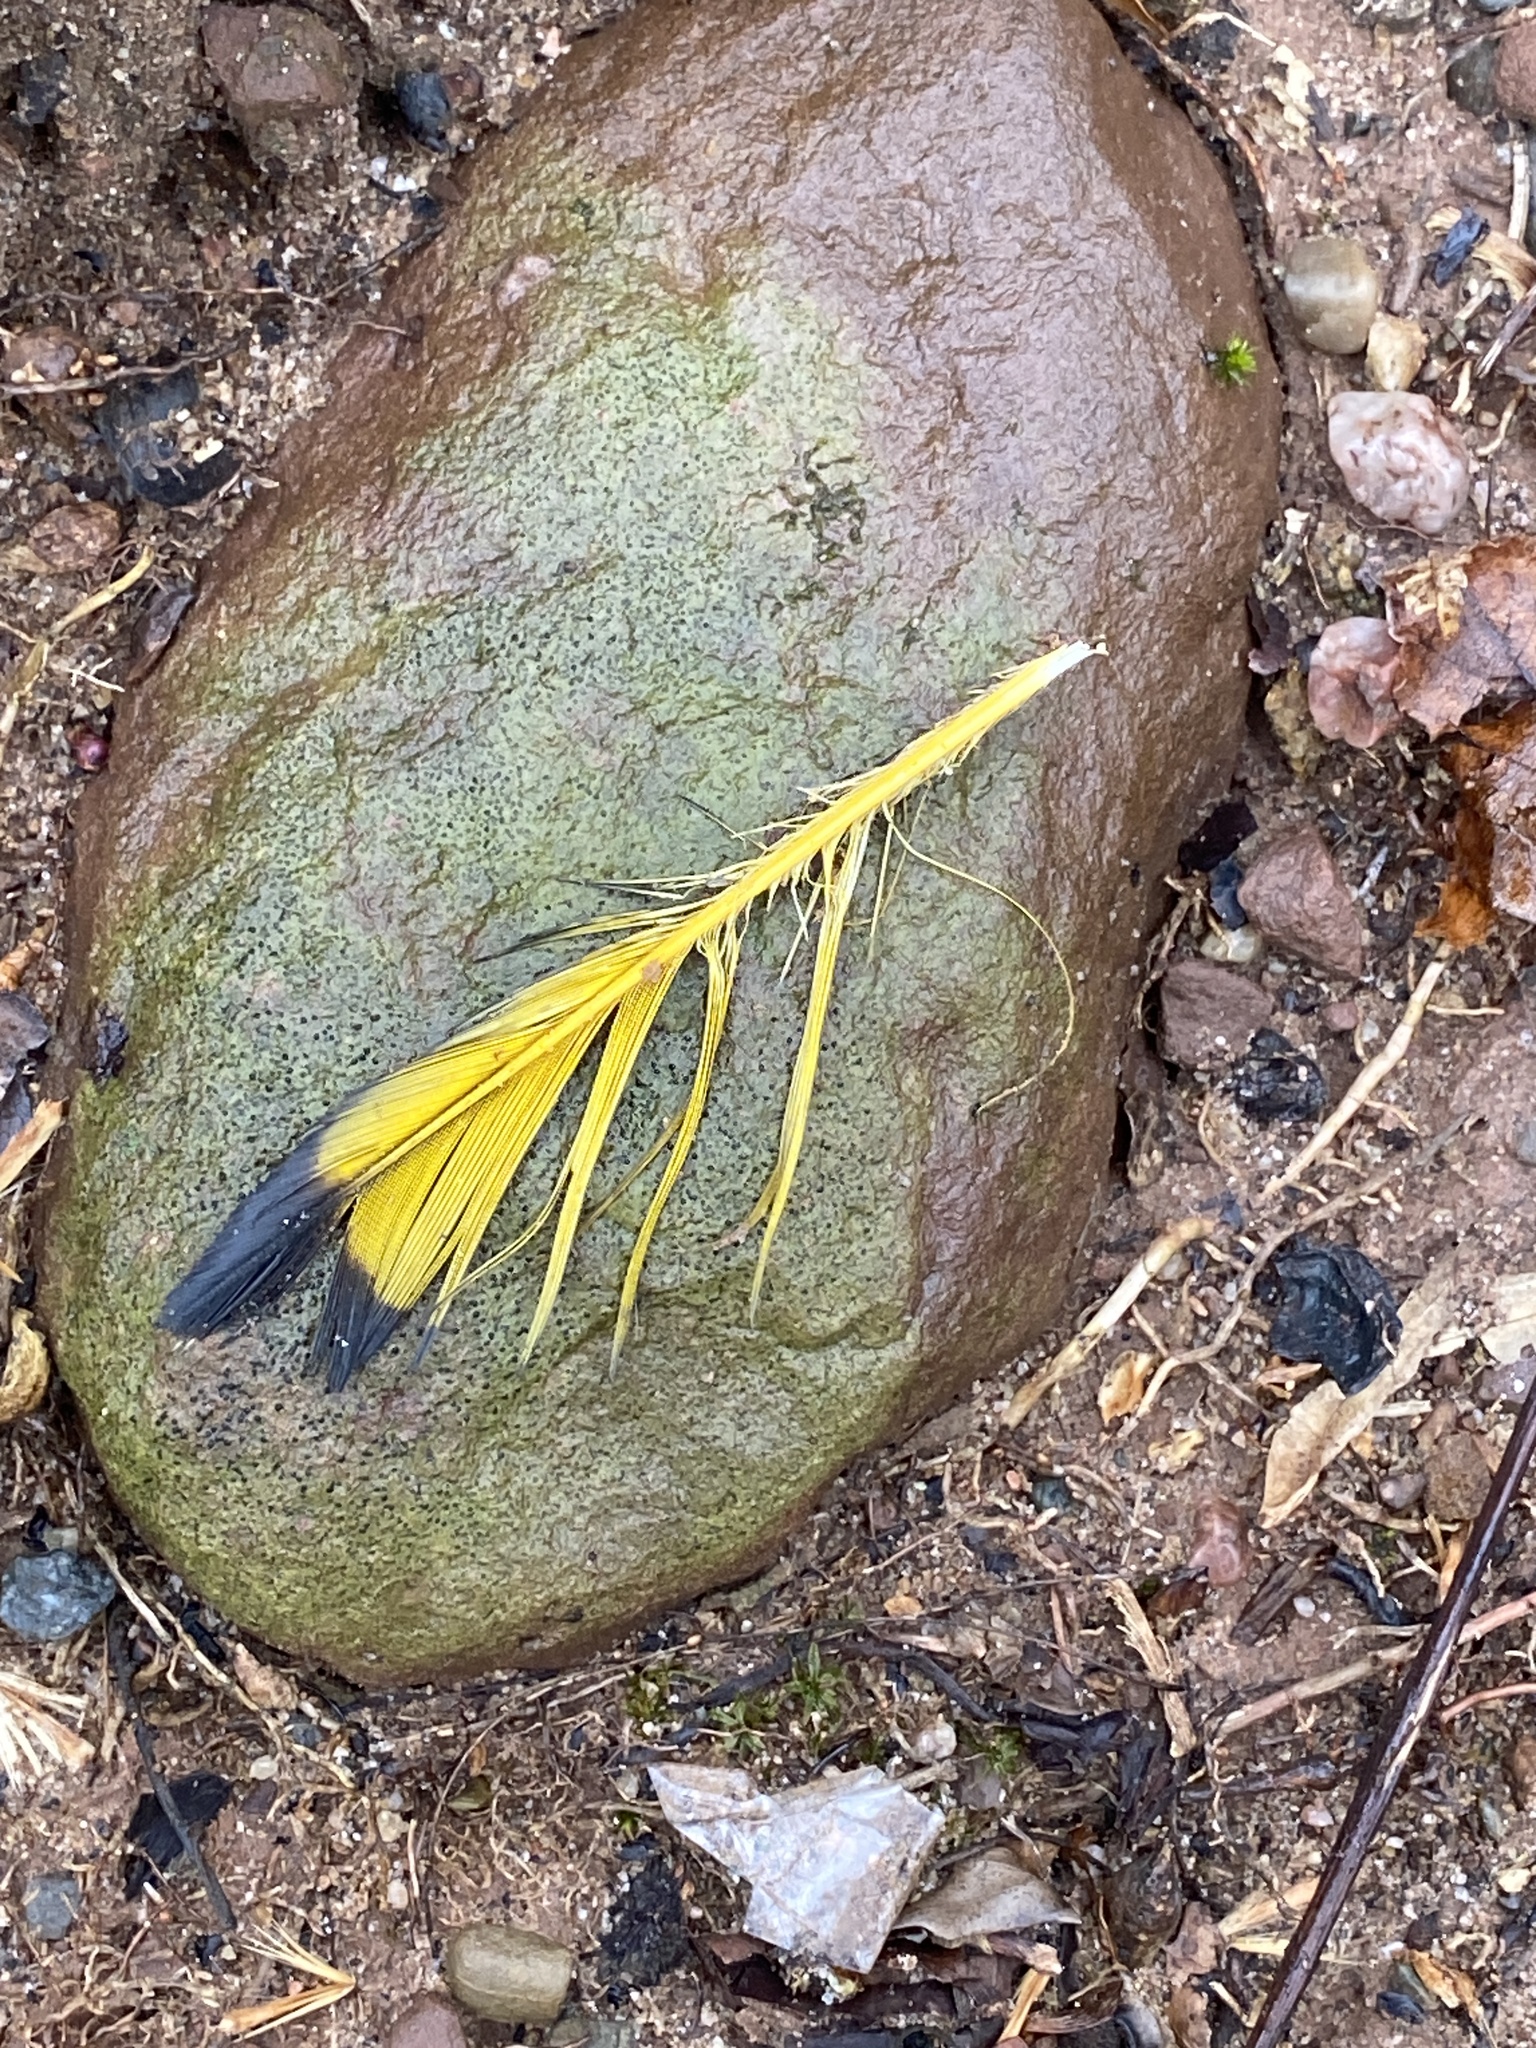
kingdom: Animalia
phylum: Chordata
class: Aves
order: Piciformes
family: Picidae
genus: Colaptes
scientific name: Colaptes auratus
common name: Northern flicker
